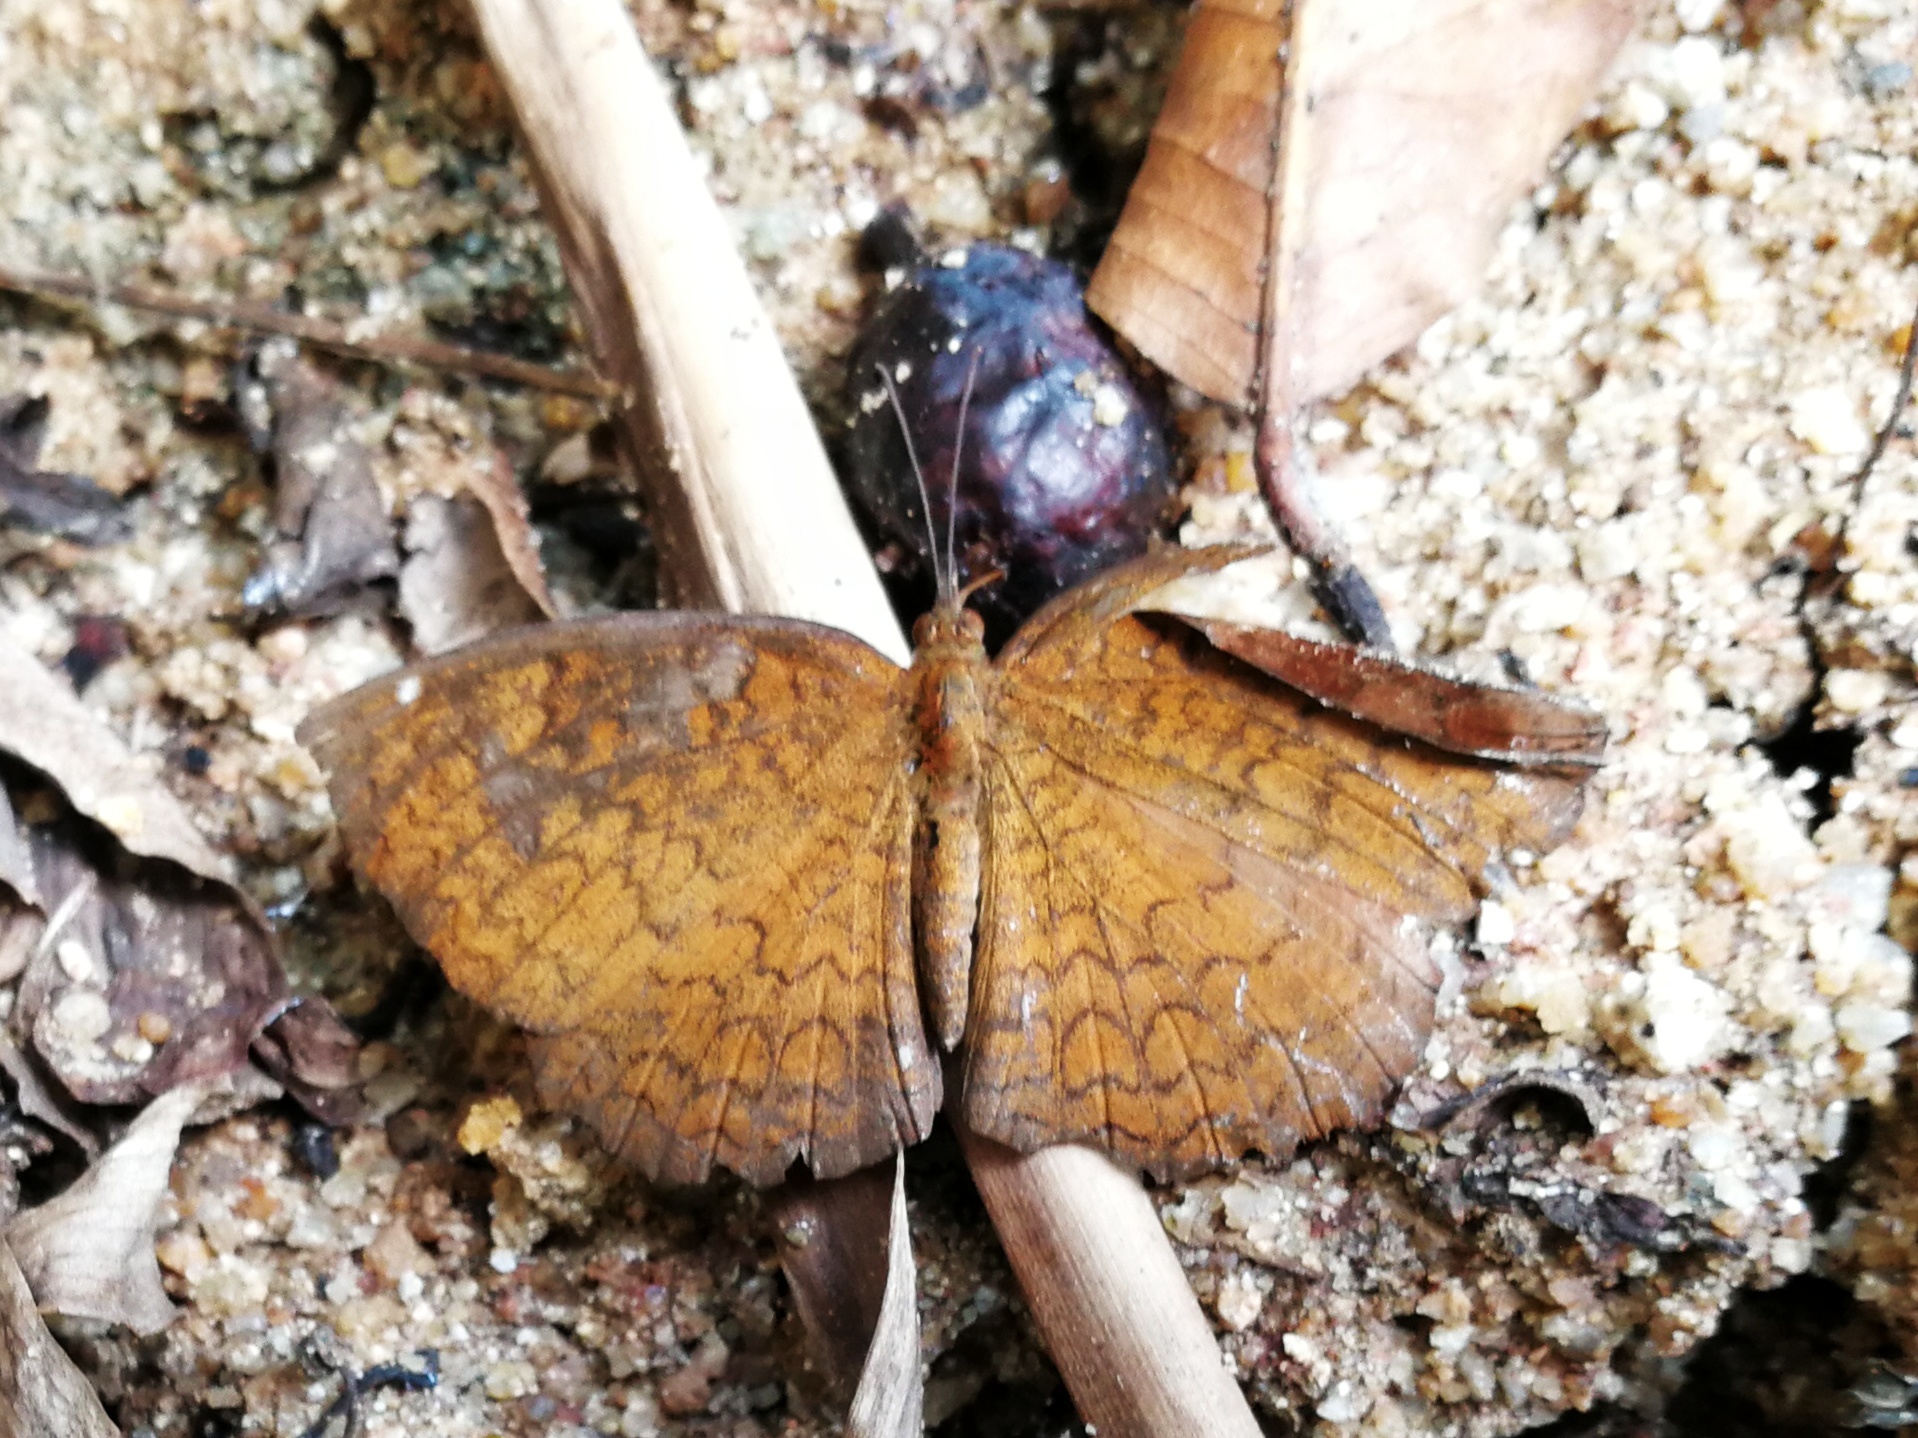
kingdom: Animalia
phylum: Arthropoda
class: Insecta
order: Lepidoptera
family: Nymphalidae
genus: Ariadne
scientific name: Ariadne merione
